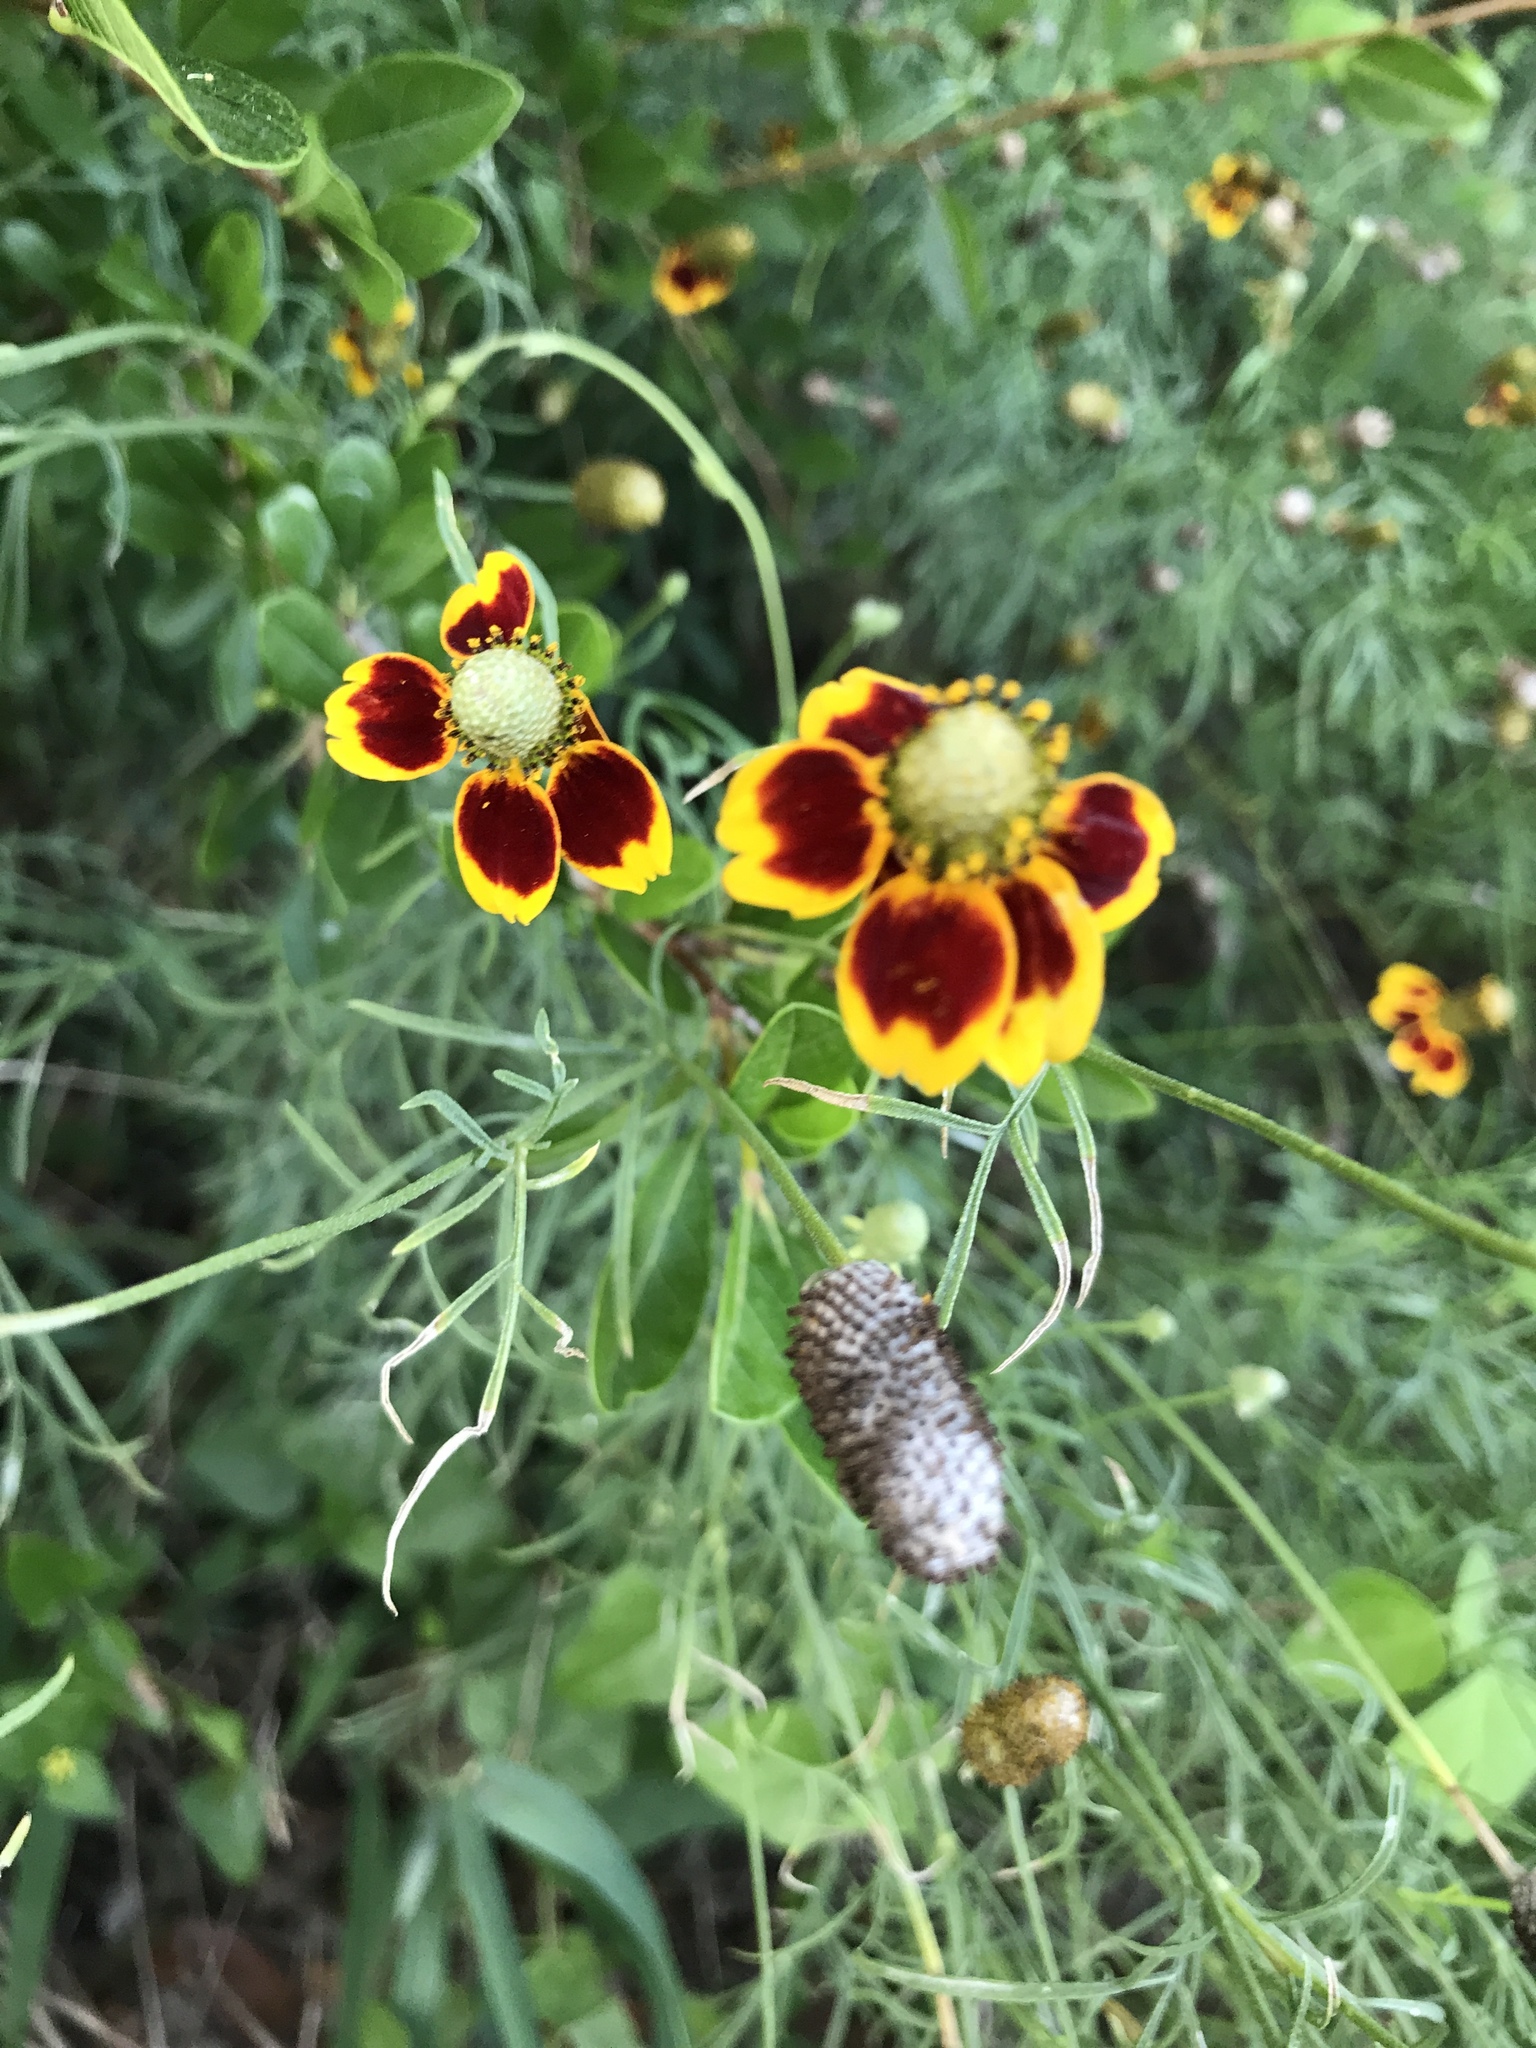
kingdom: Plantae
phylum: Tracheophyta
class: Magnoliopsida
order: Asterales
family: Asteraceae
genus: Ratibida
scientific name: Ratibida columnifera
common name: Prairie coneflower
